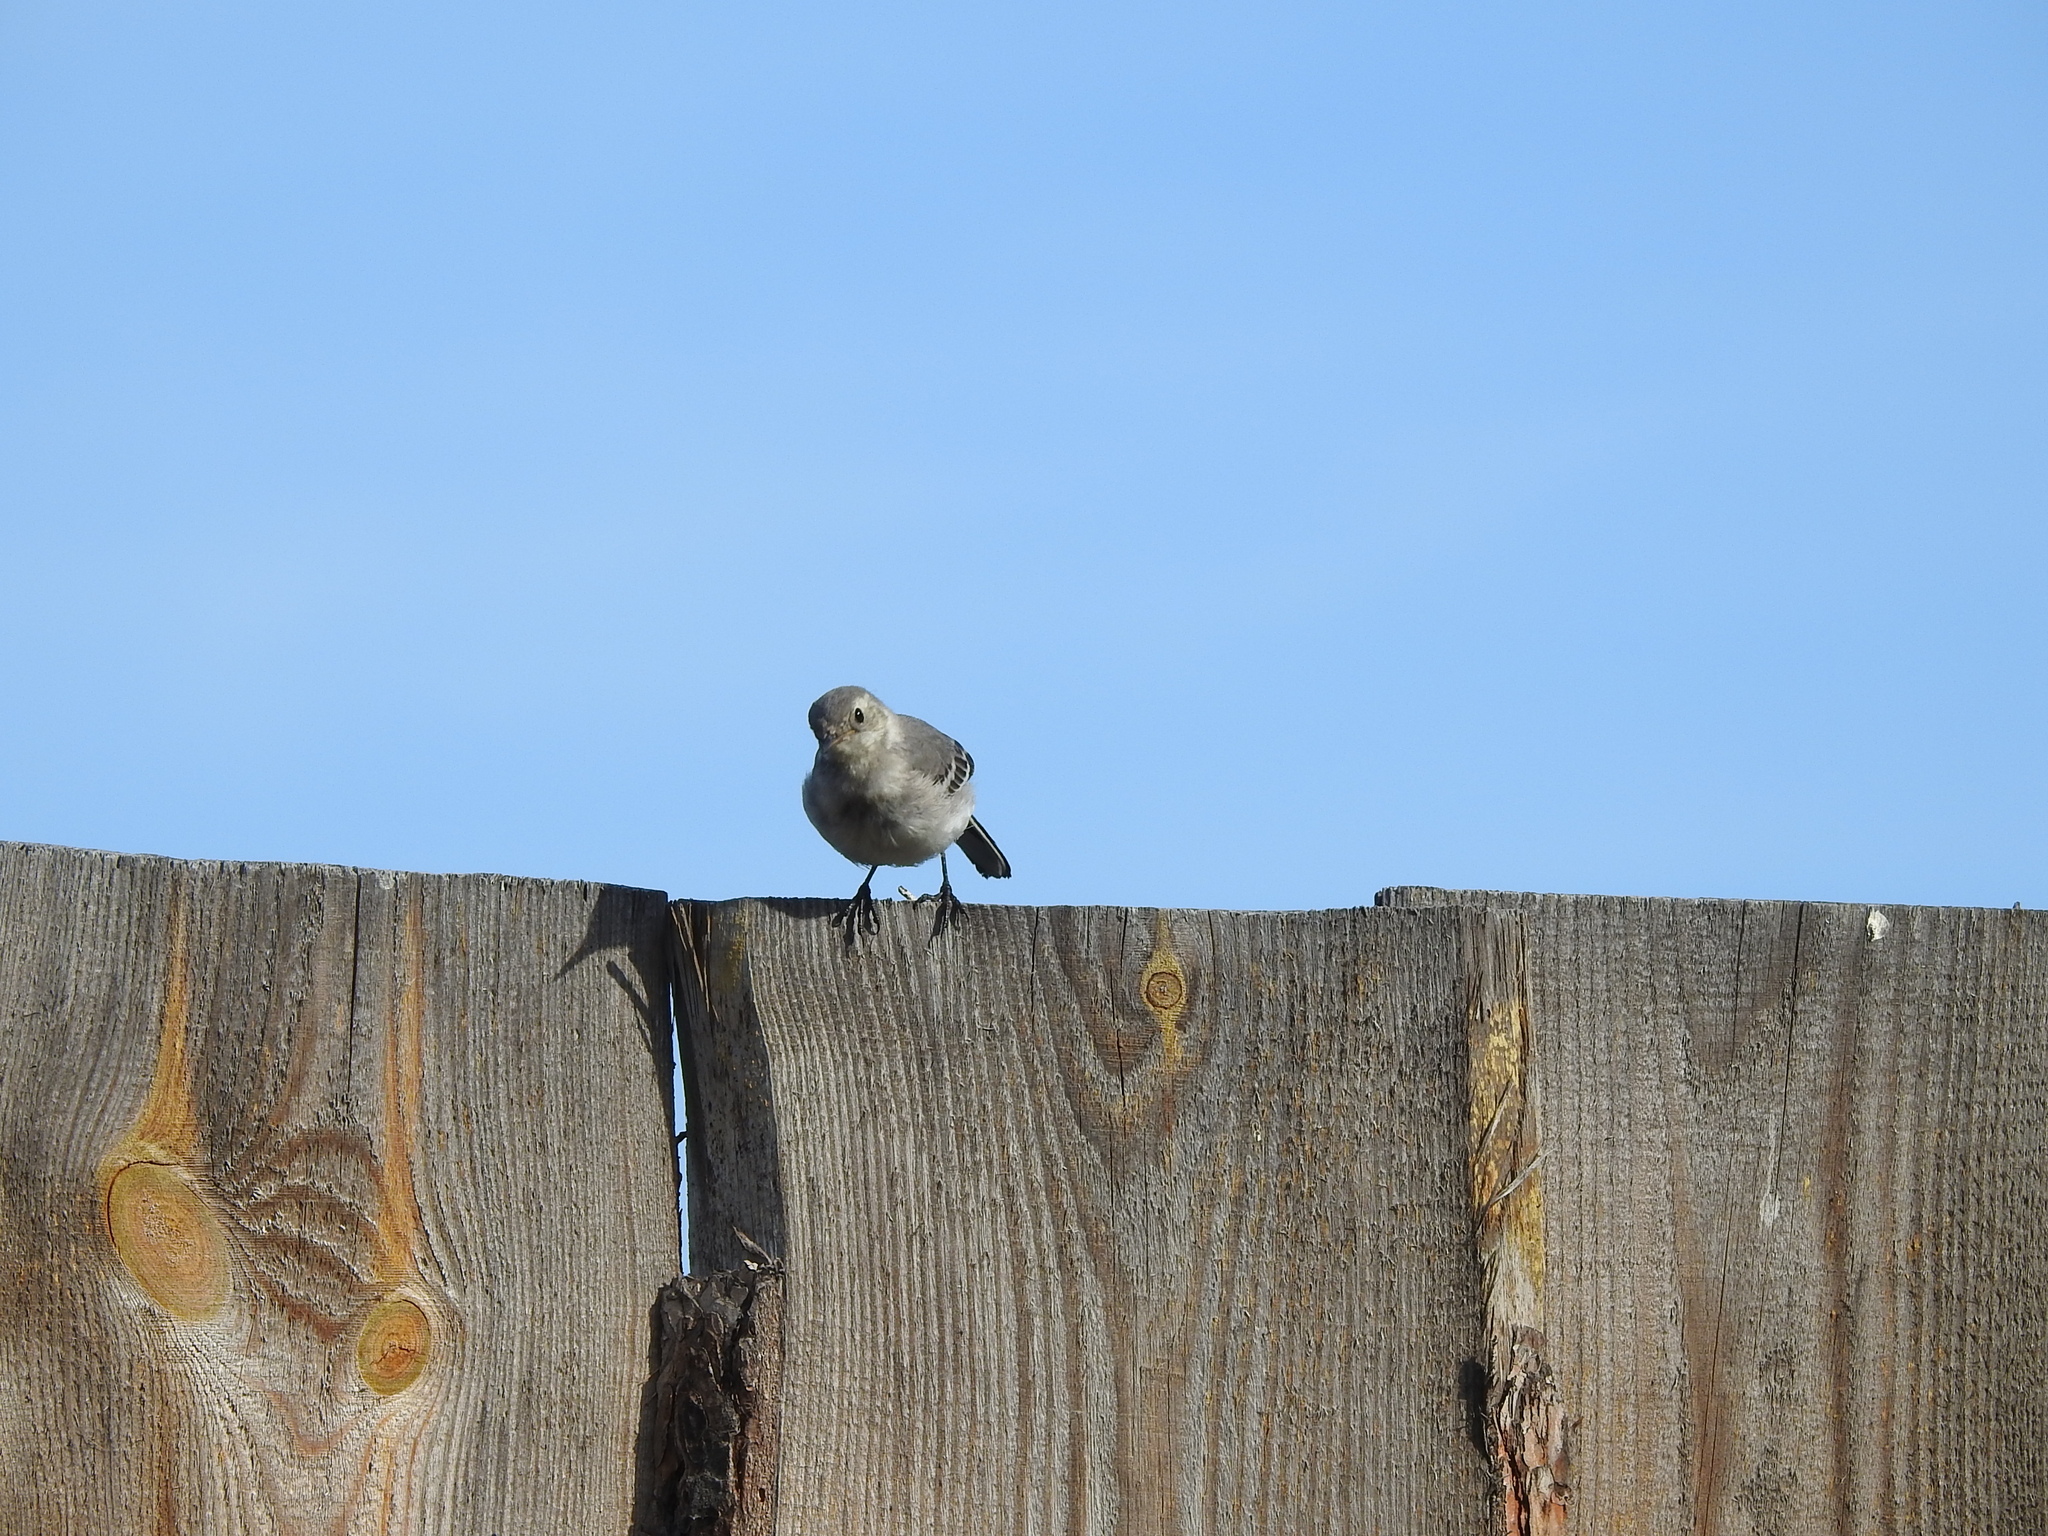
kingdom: Animalia
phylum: Chordata
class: Aves
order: Passeriformes
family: Motacillidae
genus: Motacilla
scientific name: Motacilla alba
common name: White wagtail
